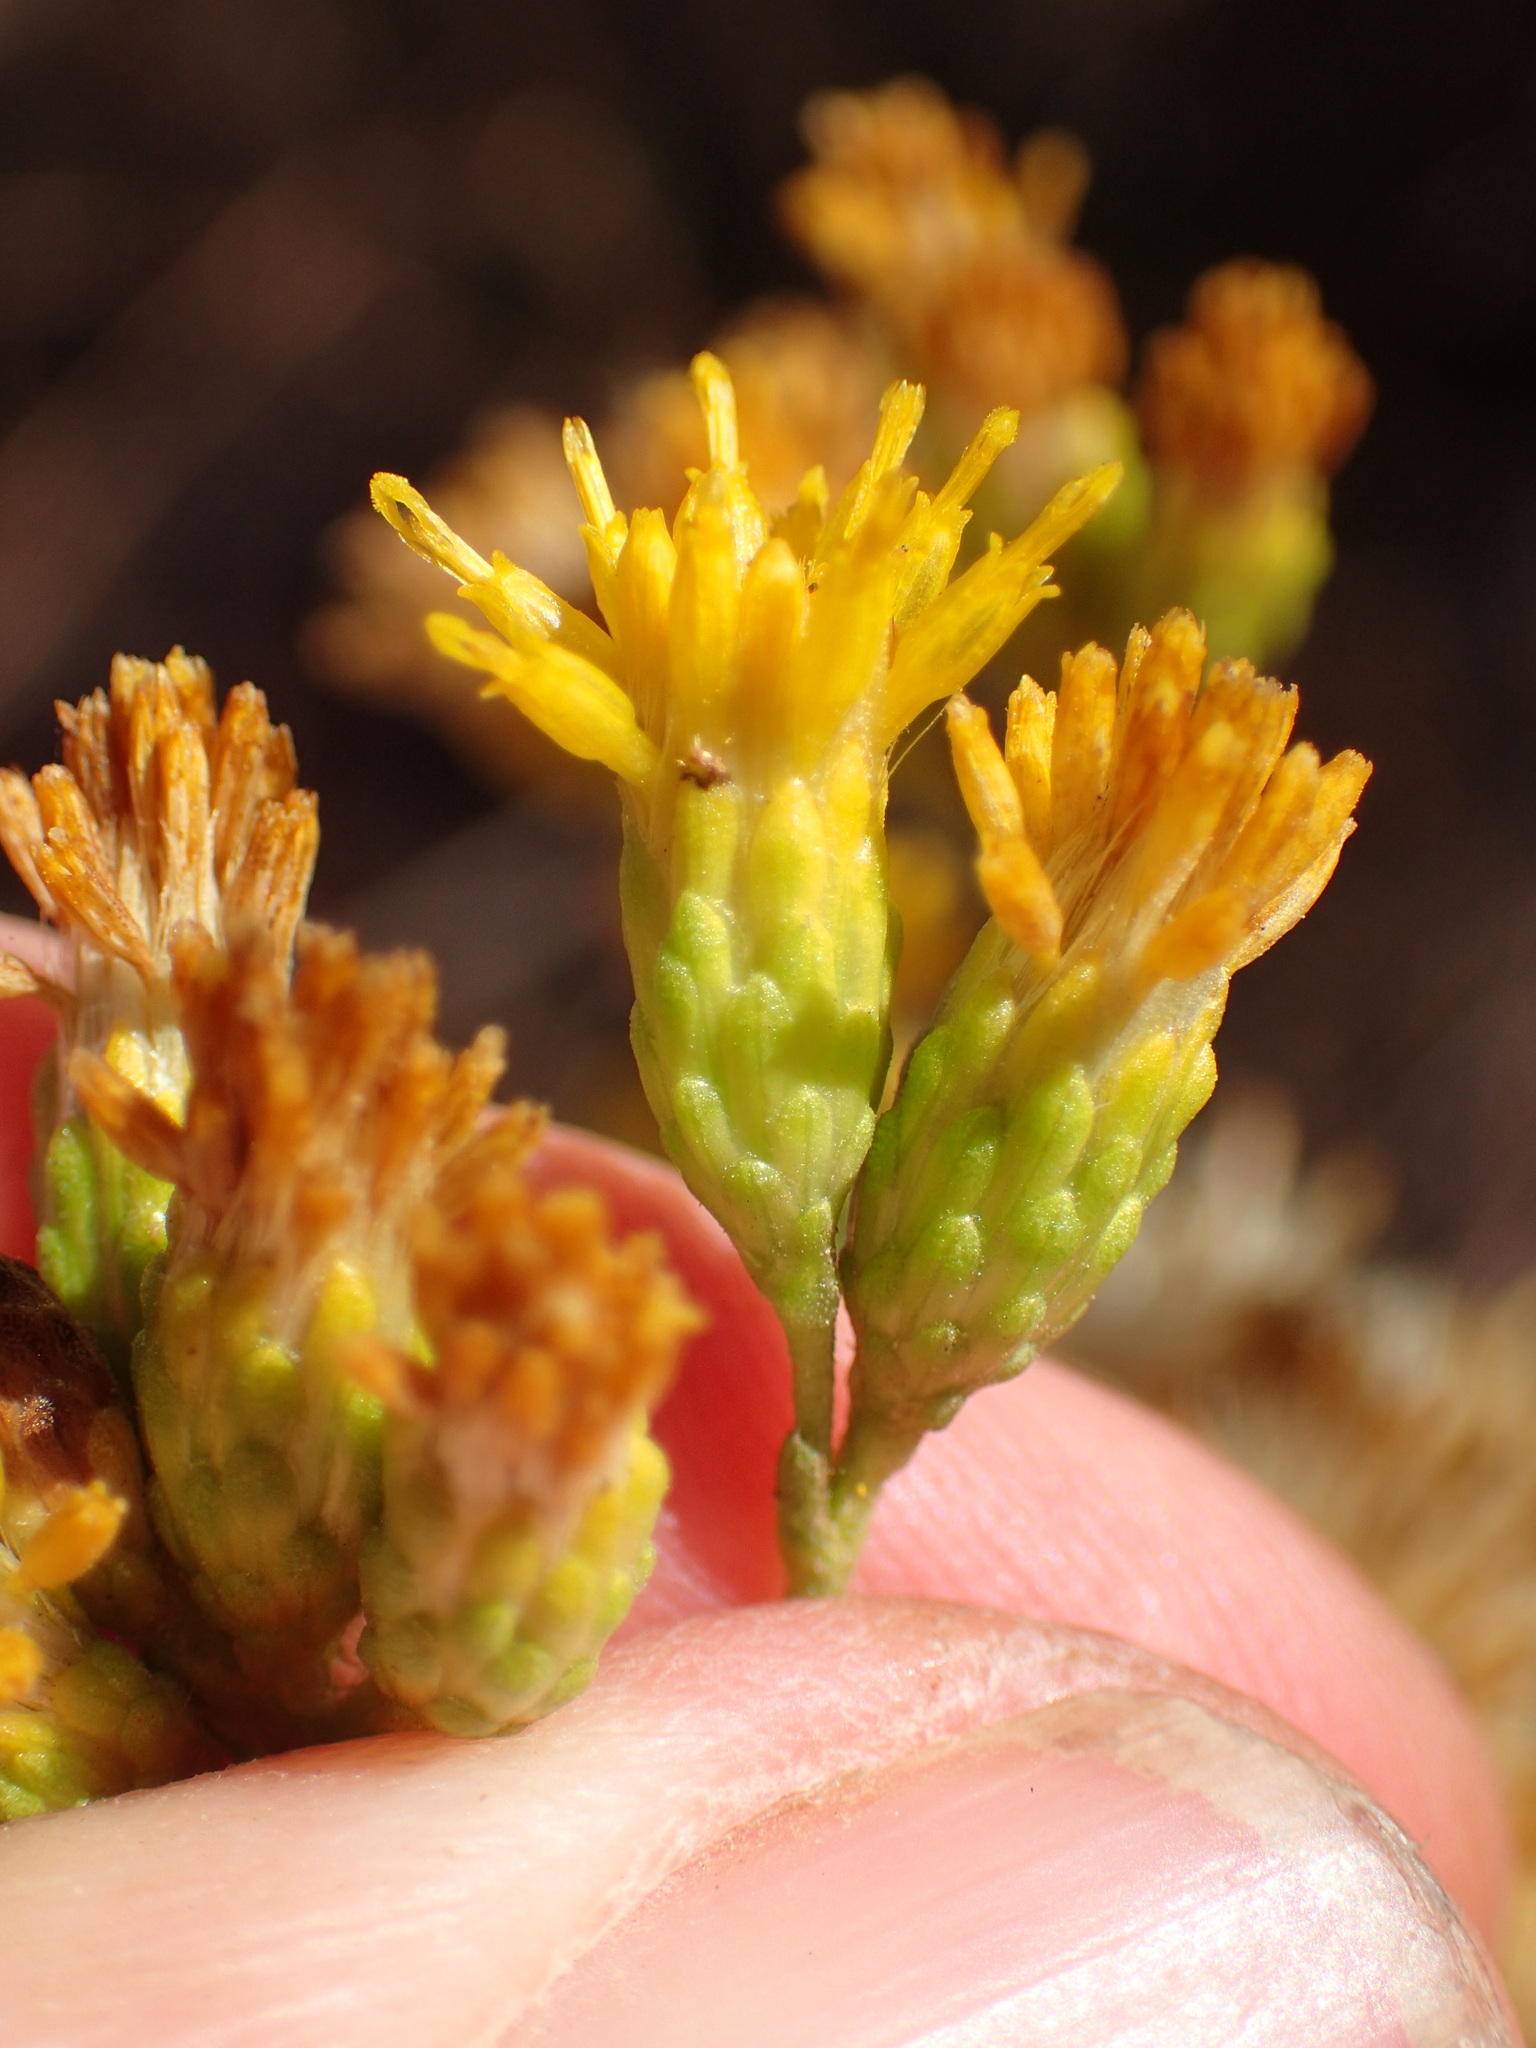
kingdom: Plantae
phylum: Tracheophyta
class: Magnoliopsida
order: Asterales
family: Asteraceae
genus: Isocoma
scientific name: Isocoma menziesii
